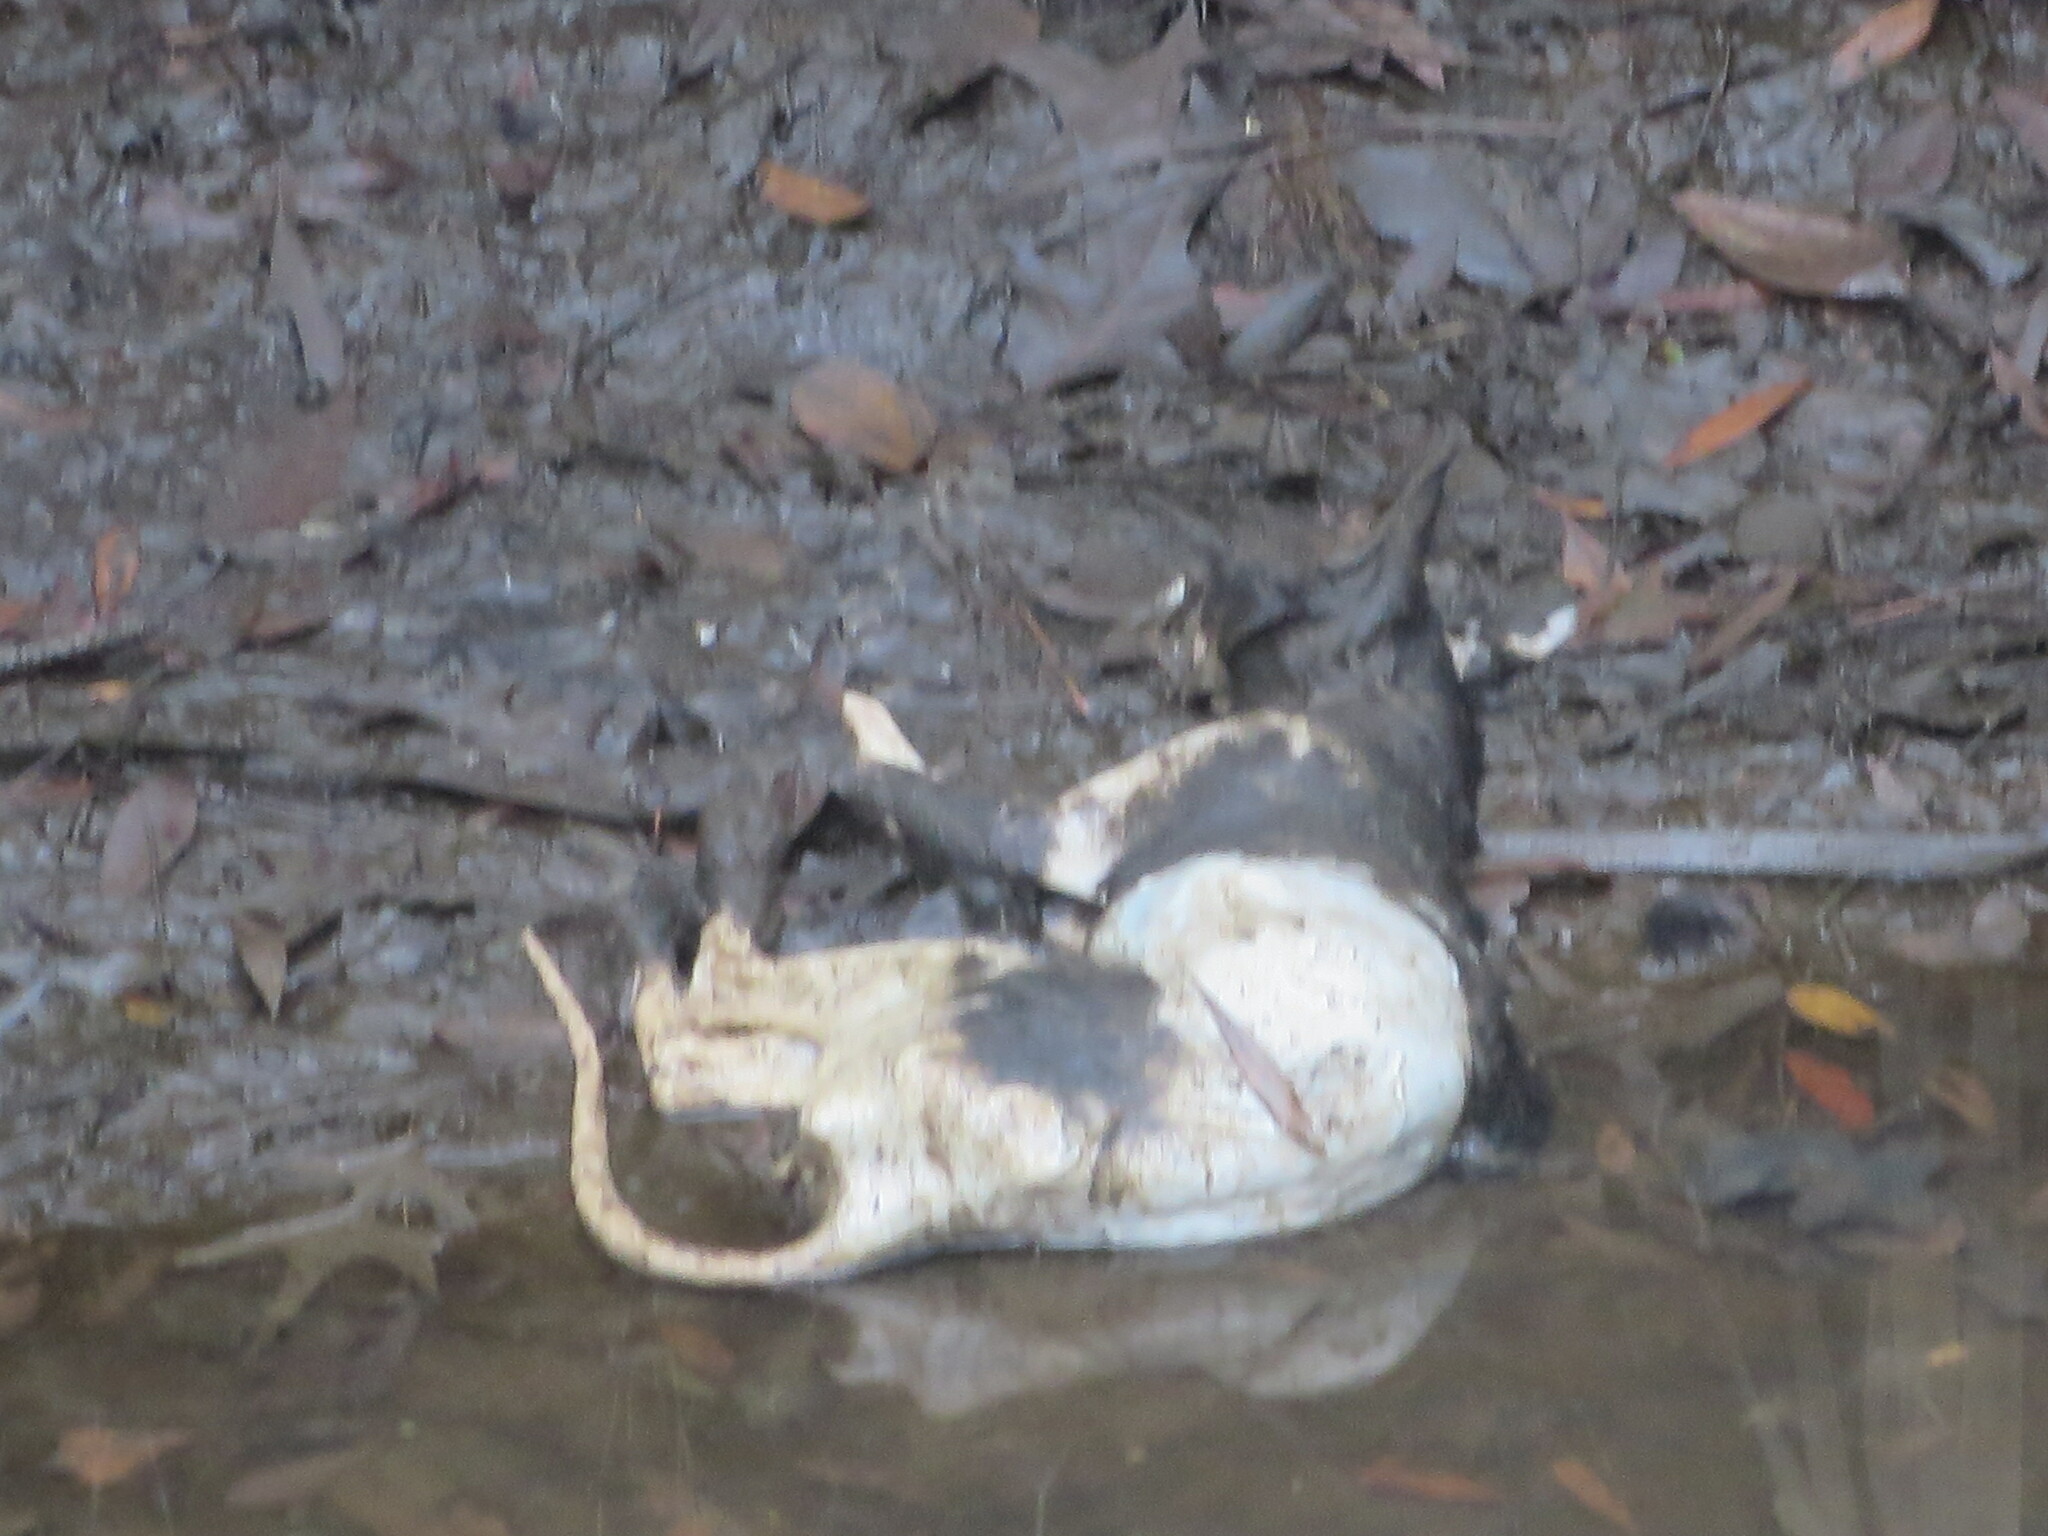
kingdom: Animalia
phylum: Chordata
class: Mammalia
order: Carnivora
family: Felidae
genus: Felis
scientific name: Felis catus
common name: Domestic cat
